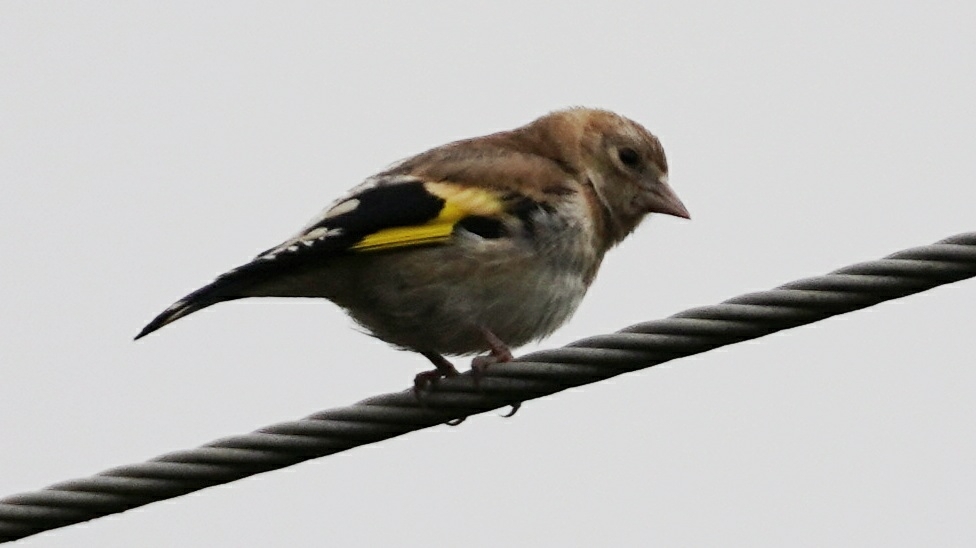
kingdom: Animalia
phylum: Chordata
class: Aves
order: Passeriformes
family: Fringillidae
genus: Carduelis
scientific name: Carduelis carduelis
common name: European goldfinch
